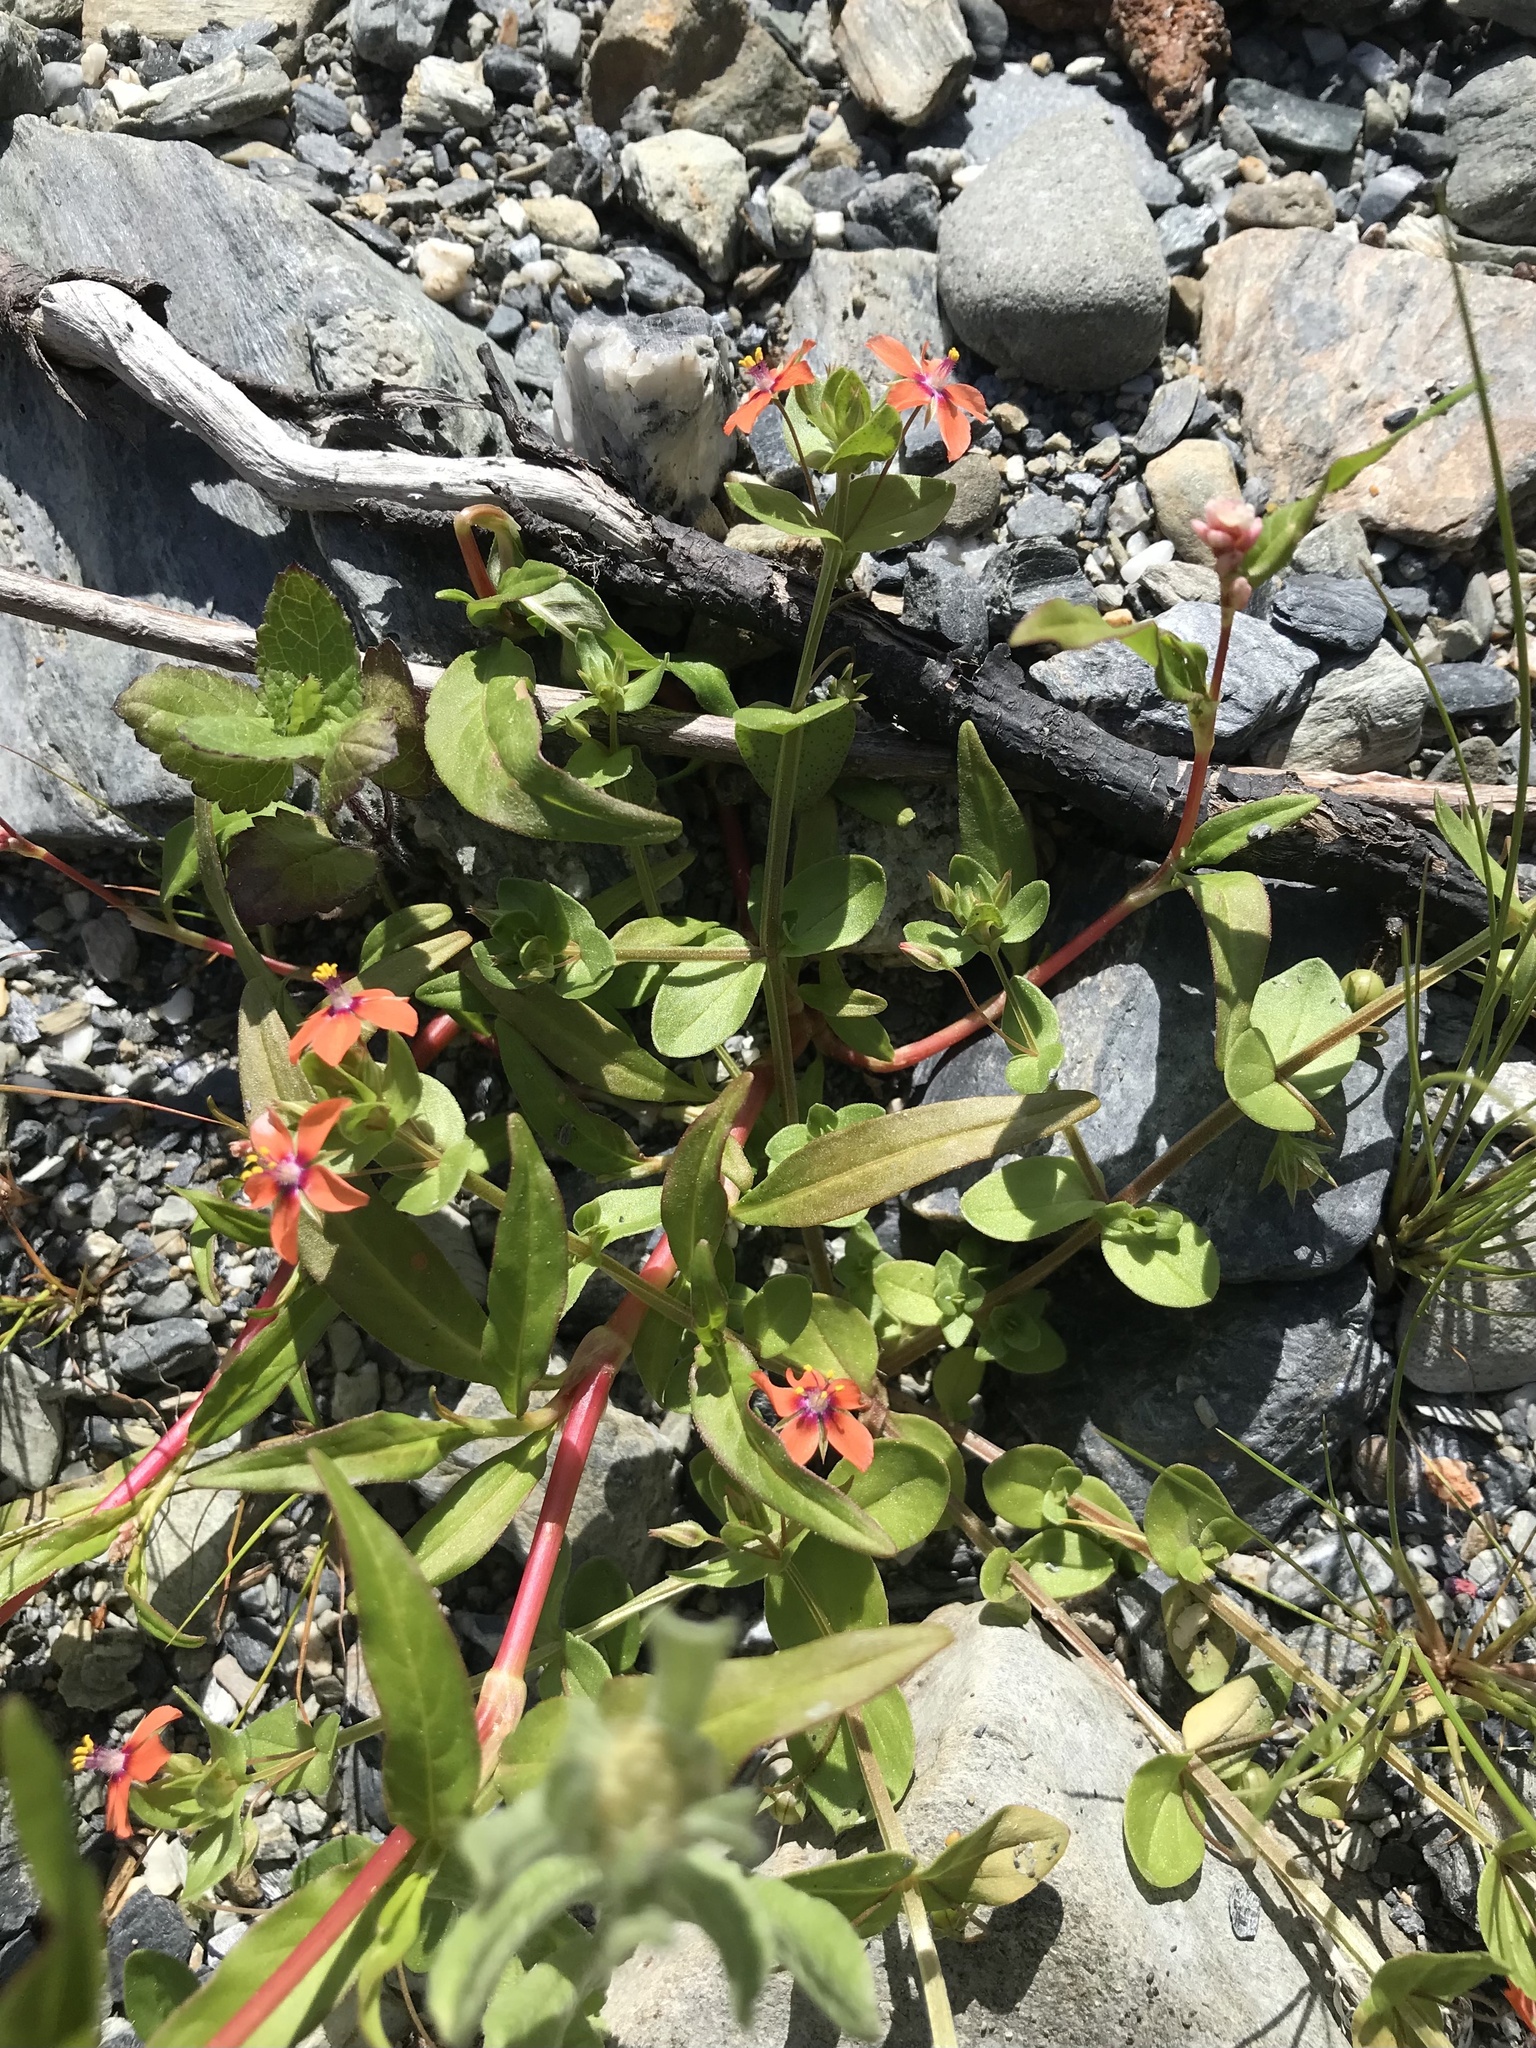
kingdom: Plantae
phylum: Tracheophyta
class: Magnoliopsida
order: Ericales
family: Primulaceae
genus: Lysimachia
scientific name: Lysimachia arvensis
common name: Scarlet pimpernel
